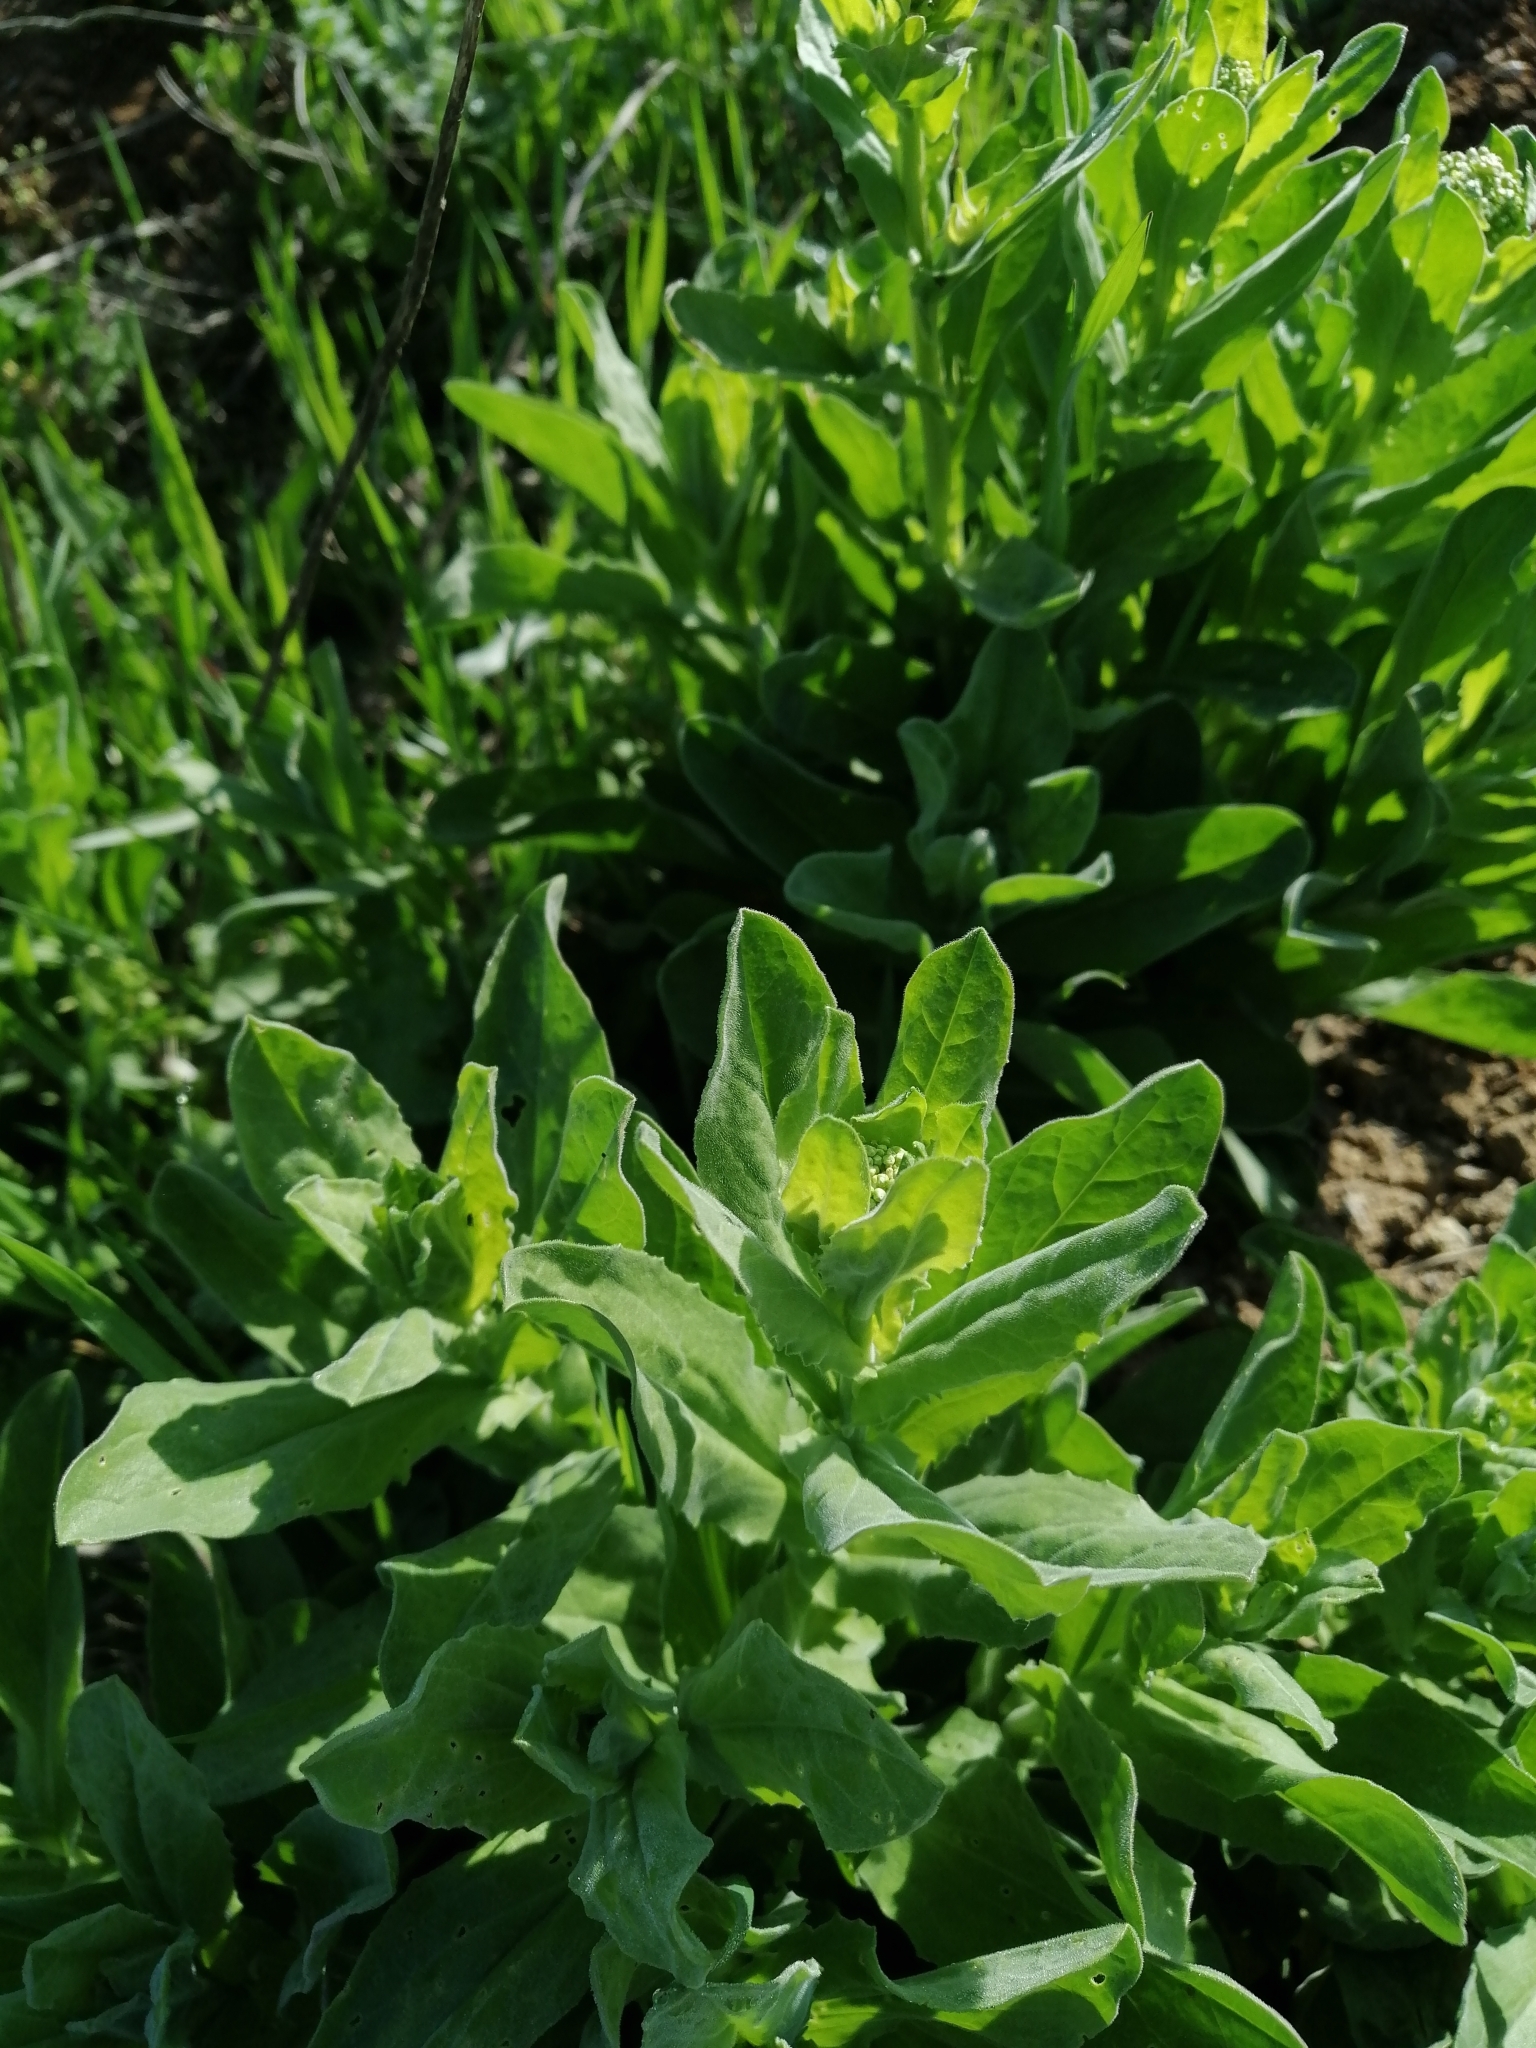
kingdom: Plantae
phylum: Tracheophyta
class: Magnoliopsida
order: Brassicales
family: Brassicaceae
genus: Lepidium
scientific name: Lepidium draba
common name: Hoary cress
